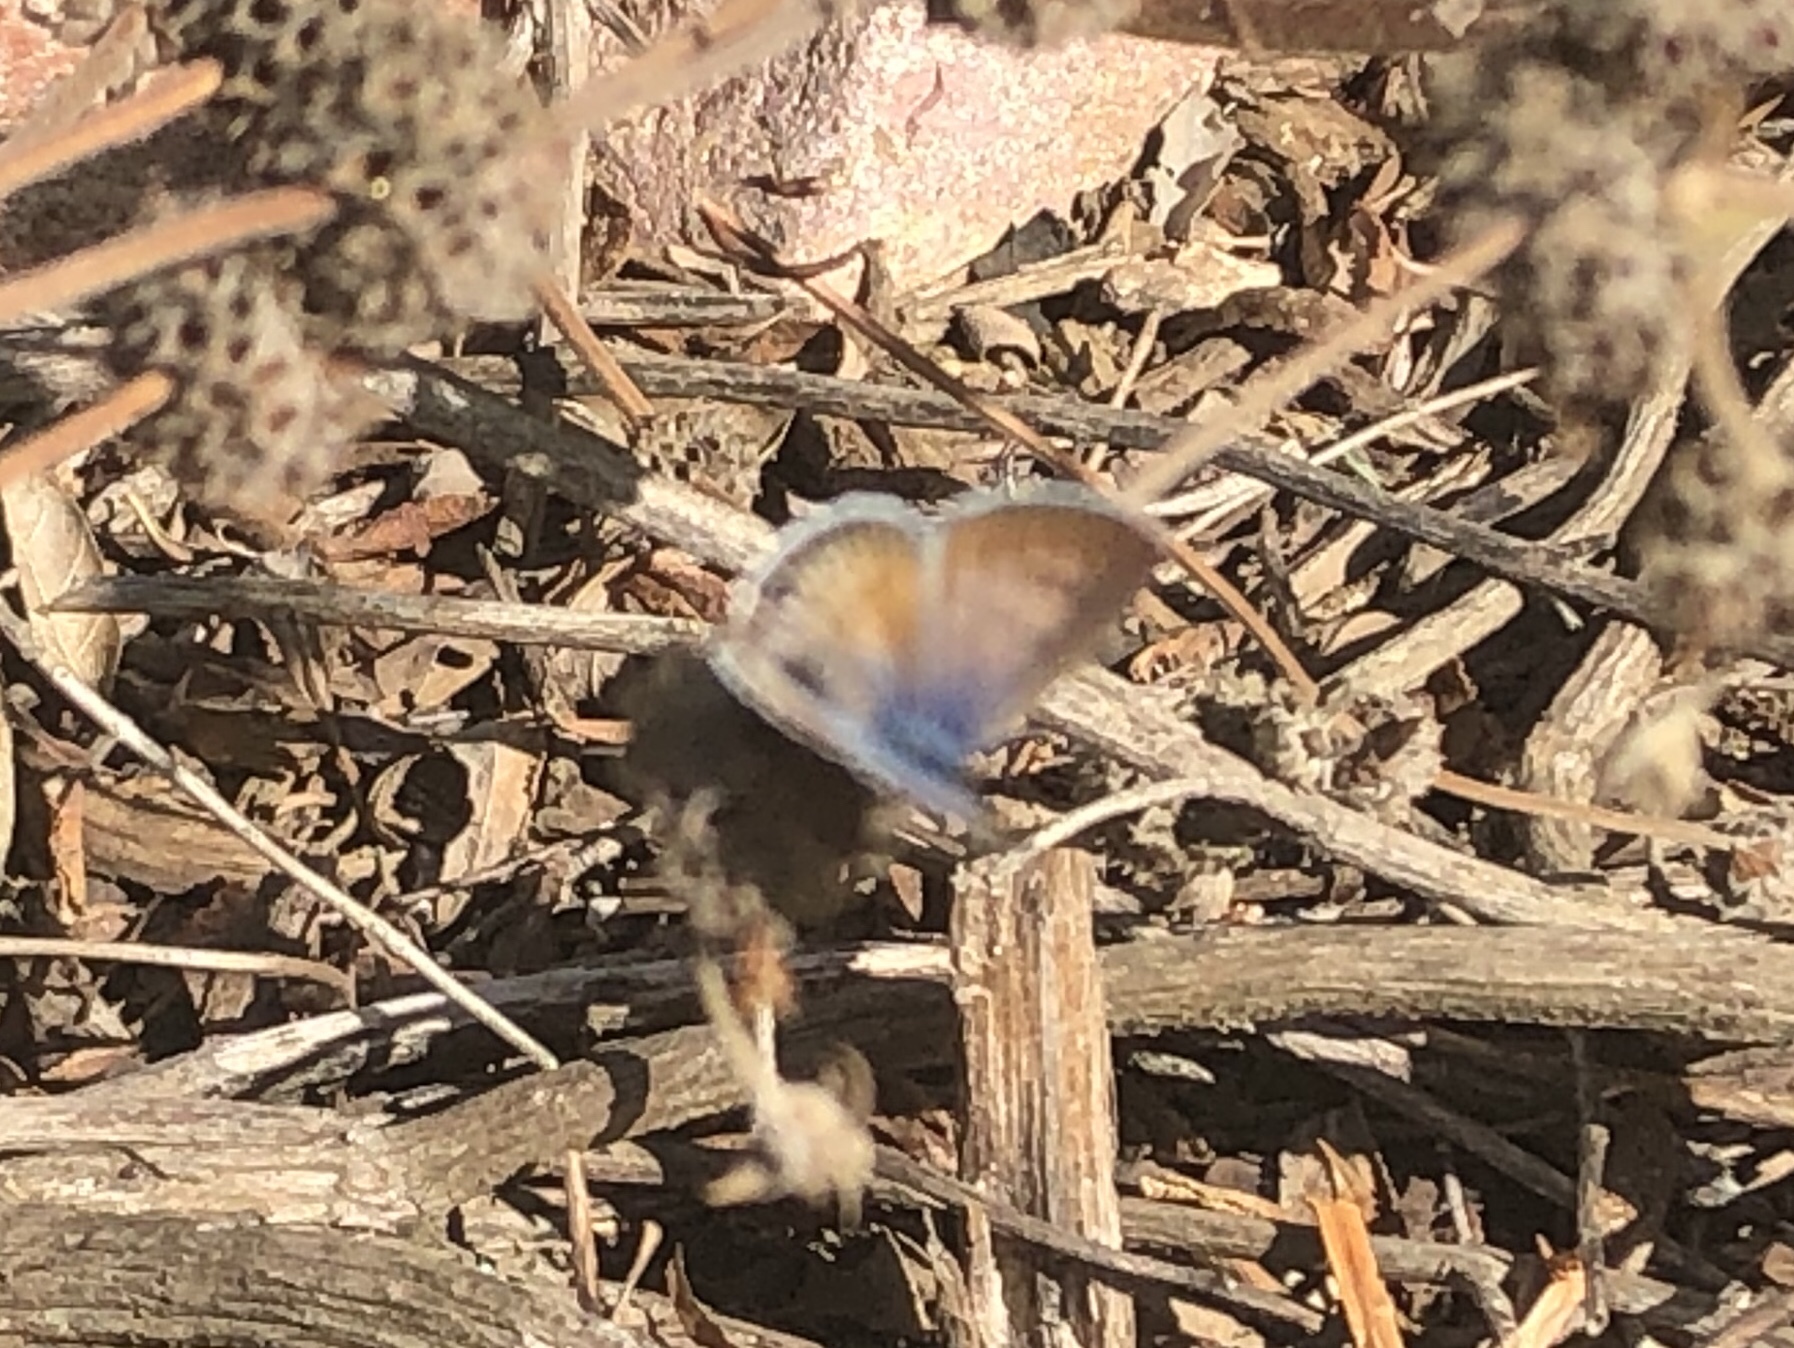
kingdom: Animalia
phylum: Arthropoda
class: Insecta
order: Lepidoptera
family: Lycaenidae
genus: Leptotes
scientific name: Leptotes marina
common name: Marine blue
